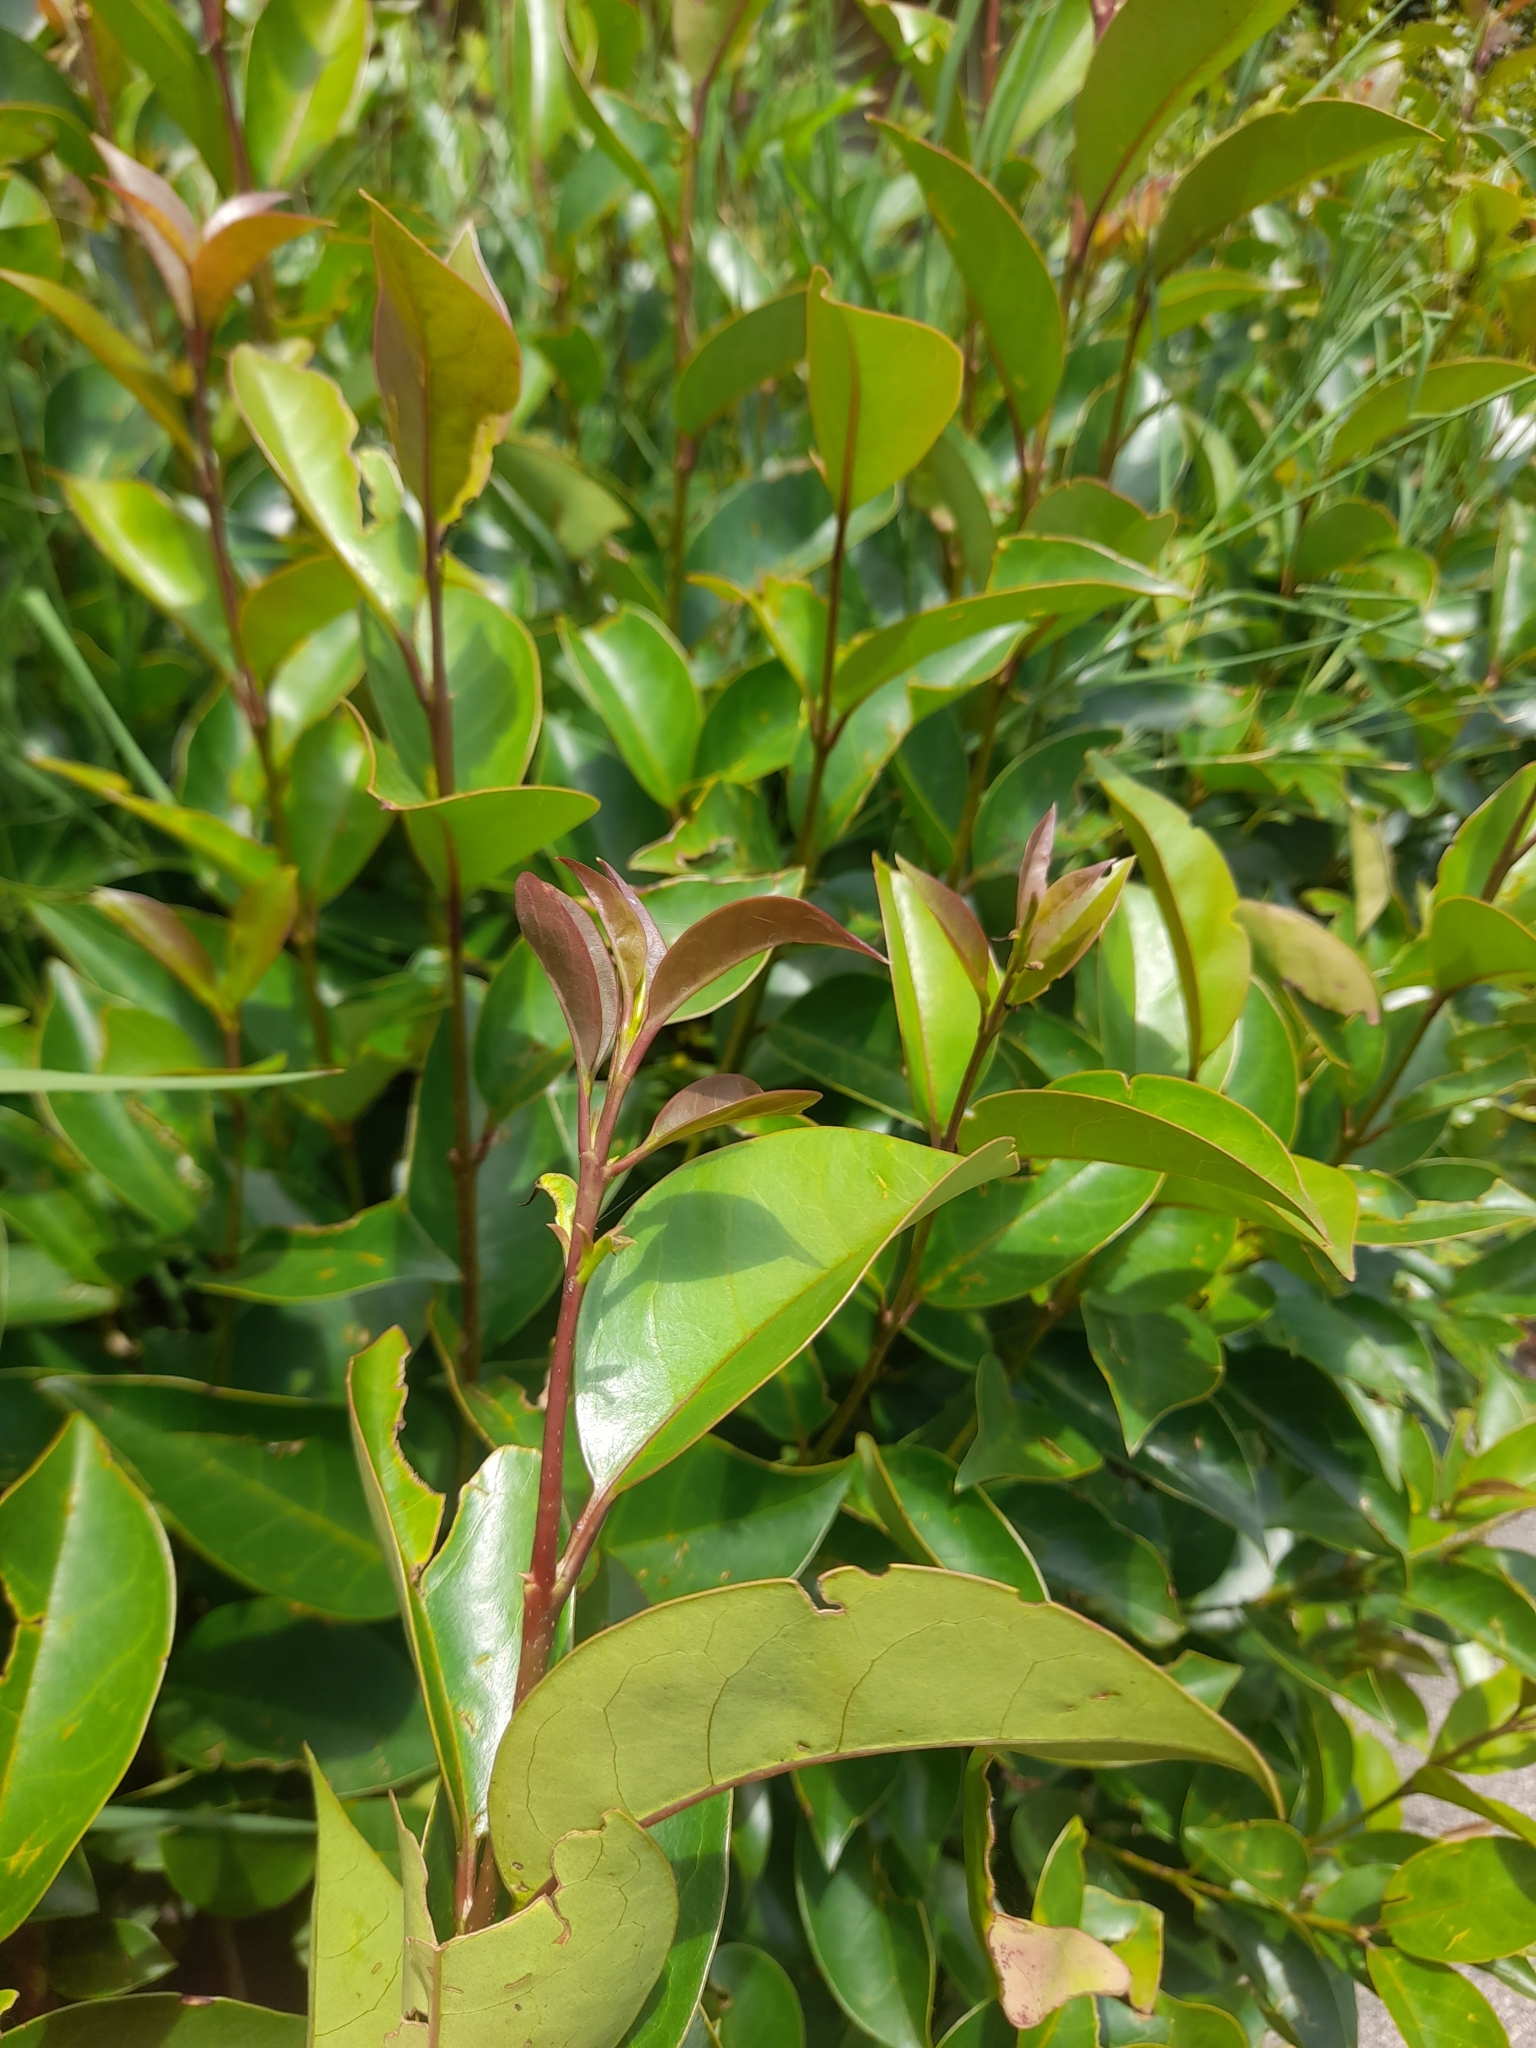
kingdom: Plantae
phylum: Tracheophyta
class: Magnoliopsida
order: Lamiales
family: Oleaceae
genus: Ligustrum
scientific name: Ligustrum lucidum
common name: Glossy privet
